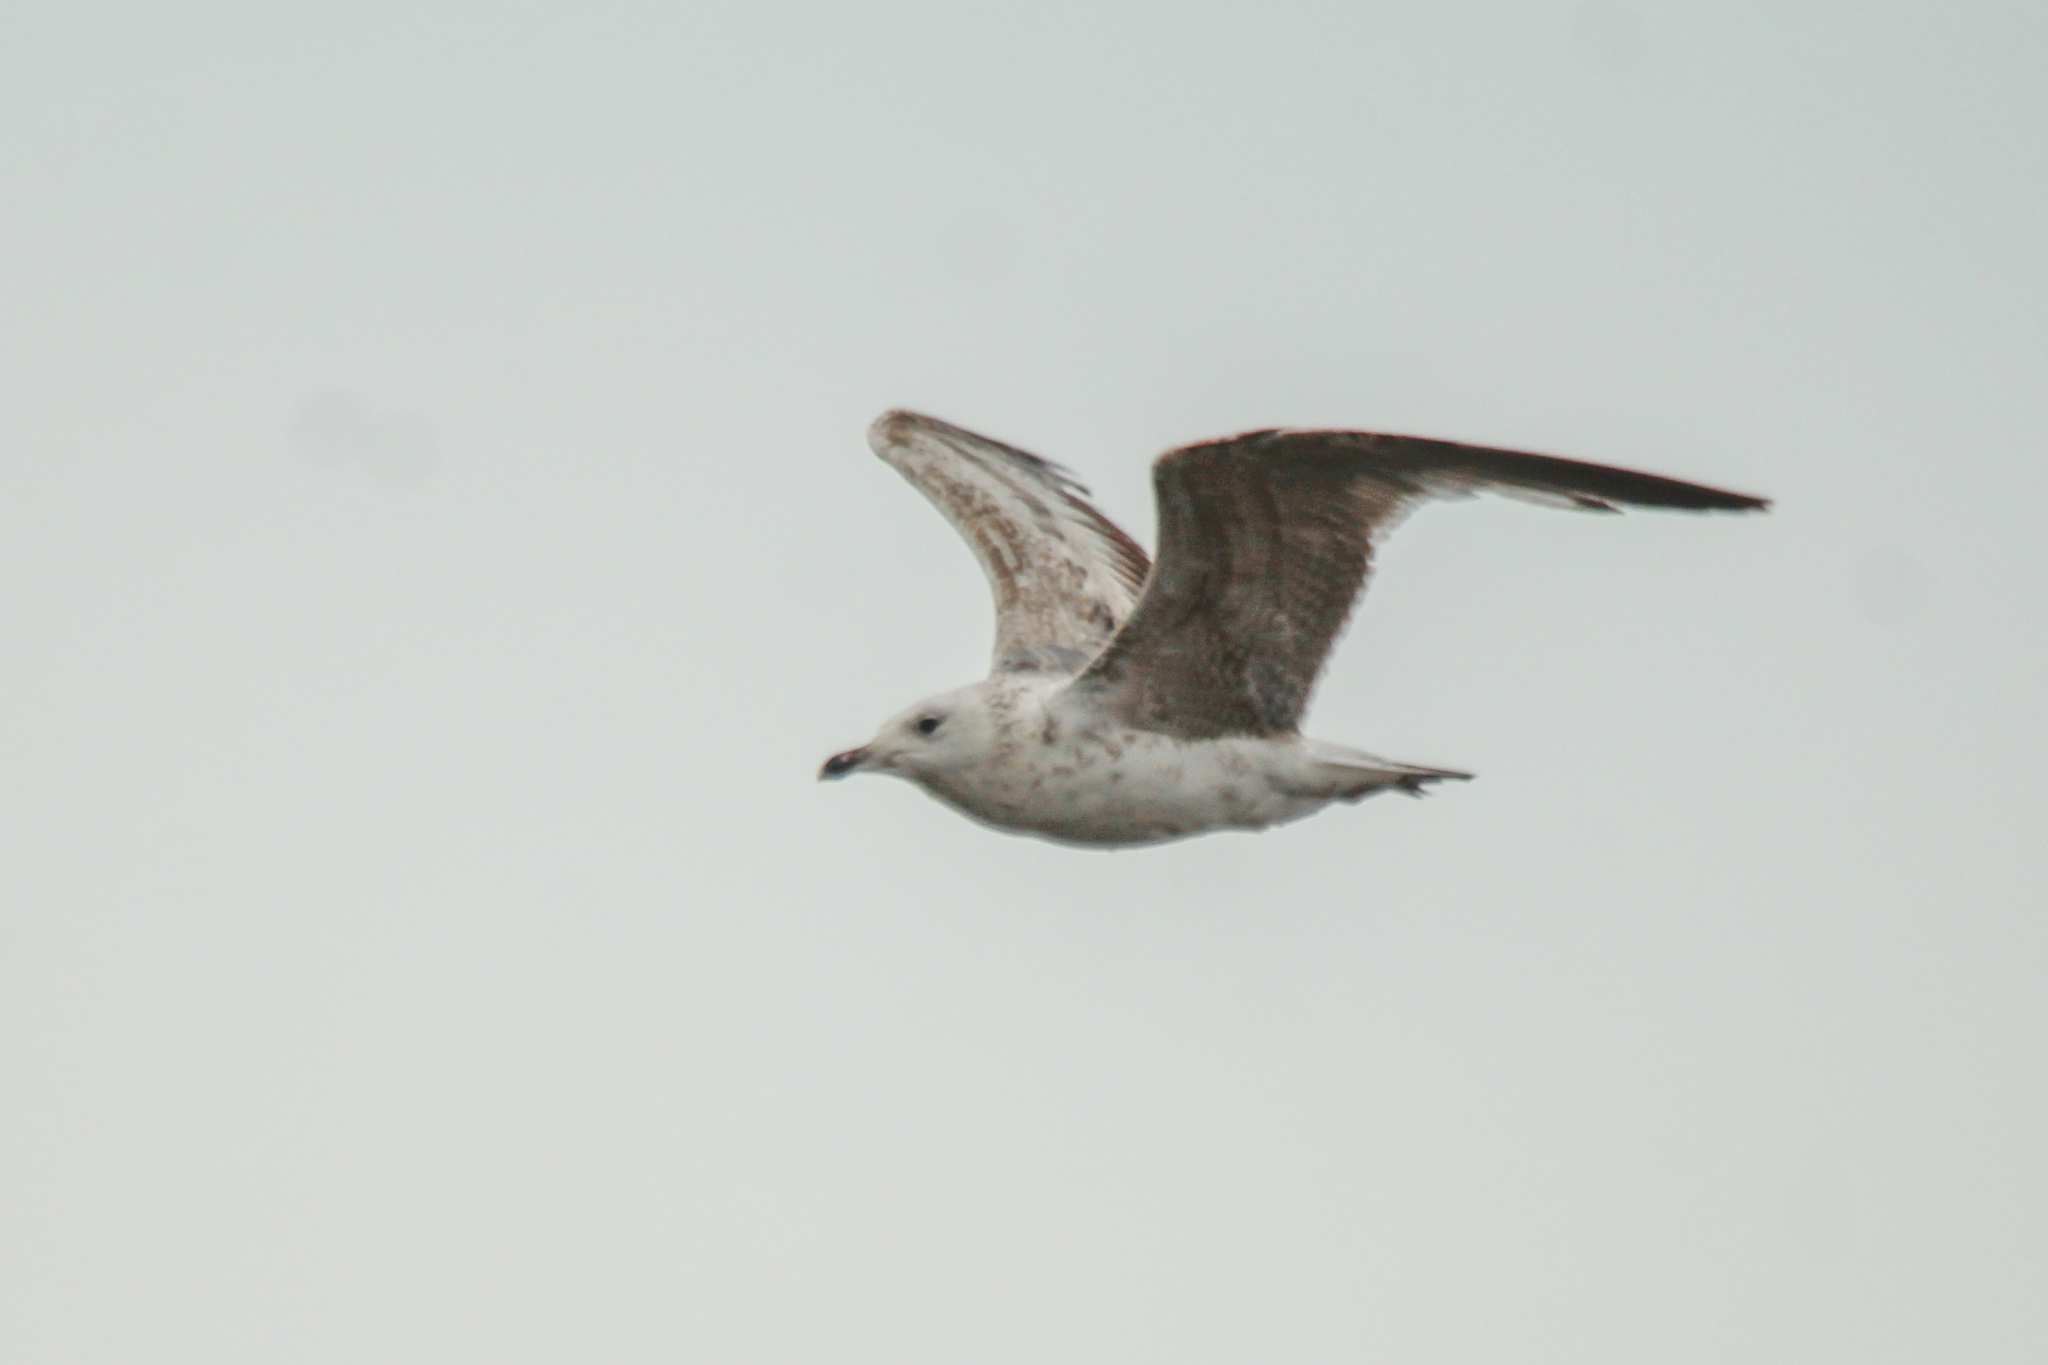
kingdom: Animalia
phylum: Chordata
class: Aves
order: Charadriiformes
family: Laridae
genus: Larus
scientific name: Larus vegae
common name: Vega gull
